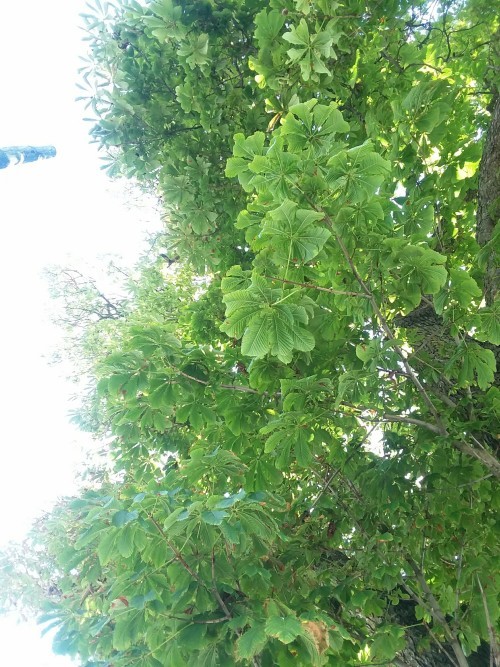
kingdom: Plantae
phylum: Tracheophyta
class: Magnoliopsida
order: Sapindales
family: Sapindaceae
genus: Aesculus
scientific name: Aesculus hippocastanum
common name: Horse-chestnut
